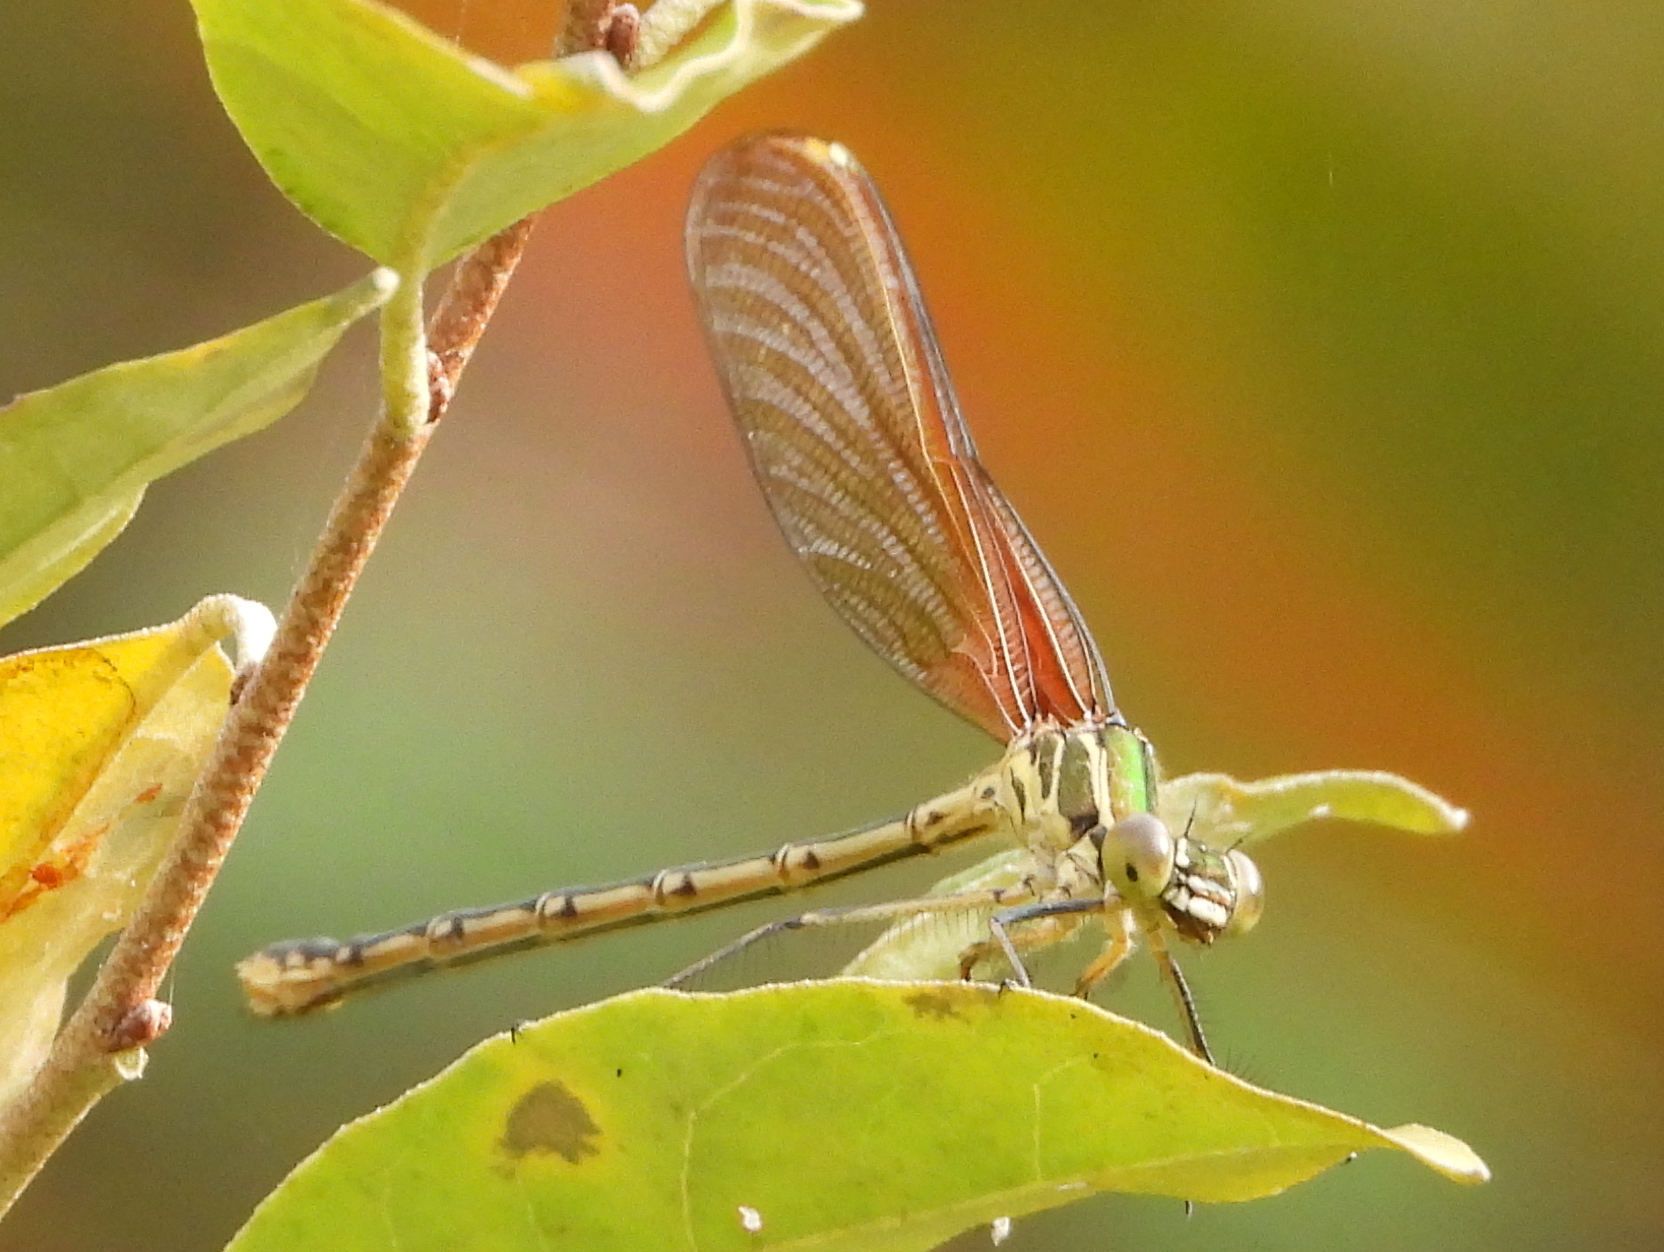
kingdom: Animalia
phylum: Arthropoda
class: Insecta
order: Odonata
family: Calopterygidae
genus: Hetaerina
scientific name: Hetaerina americana
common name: American rubyspot
